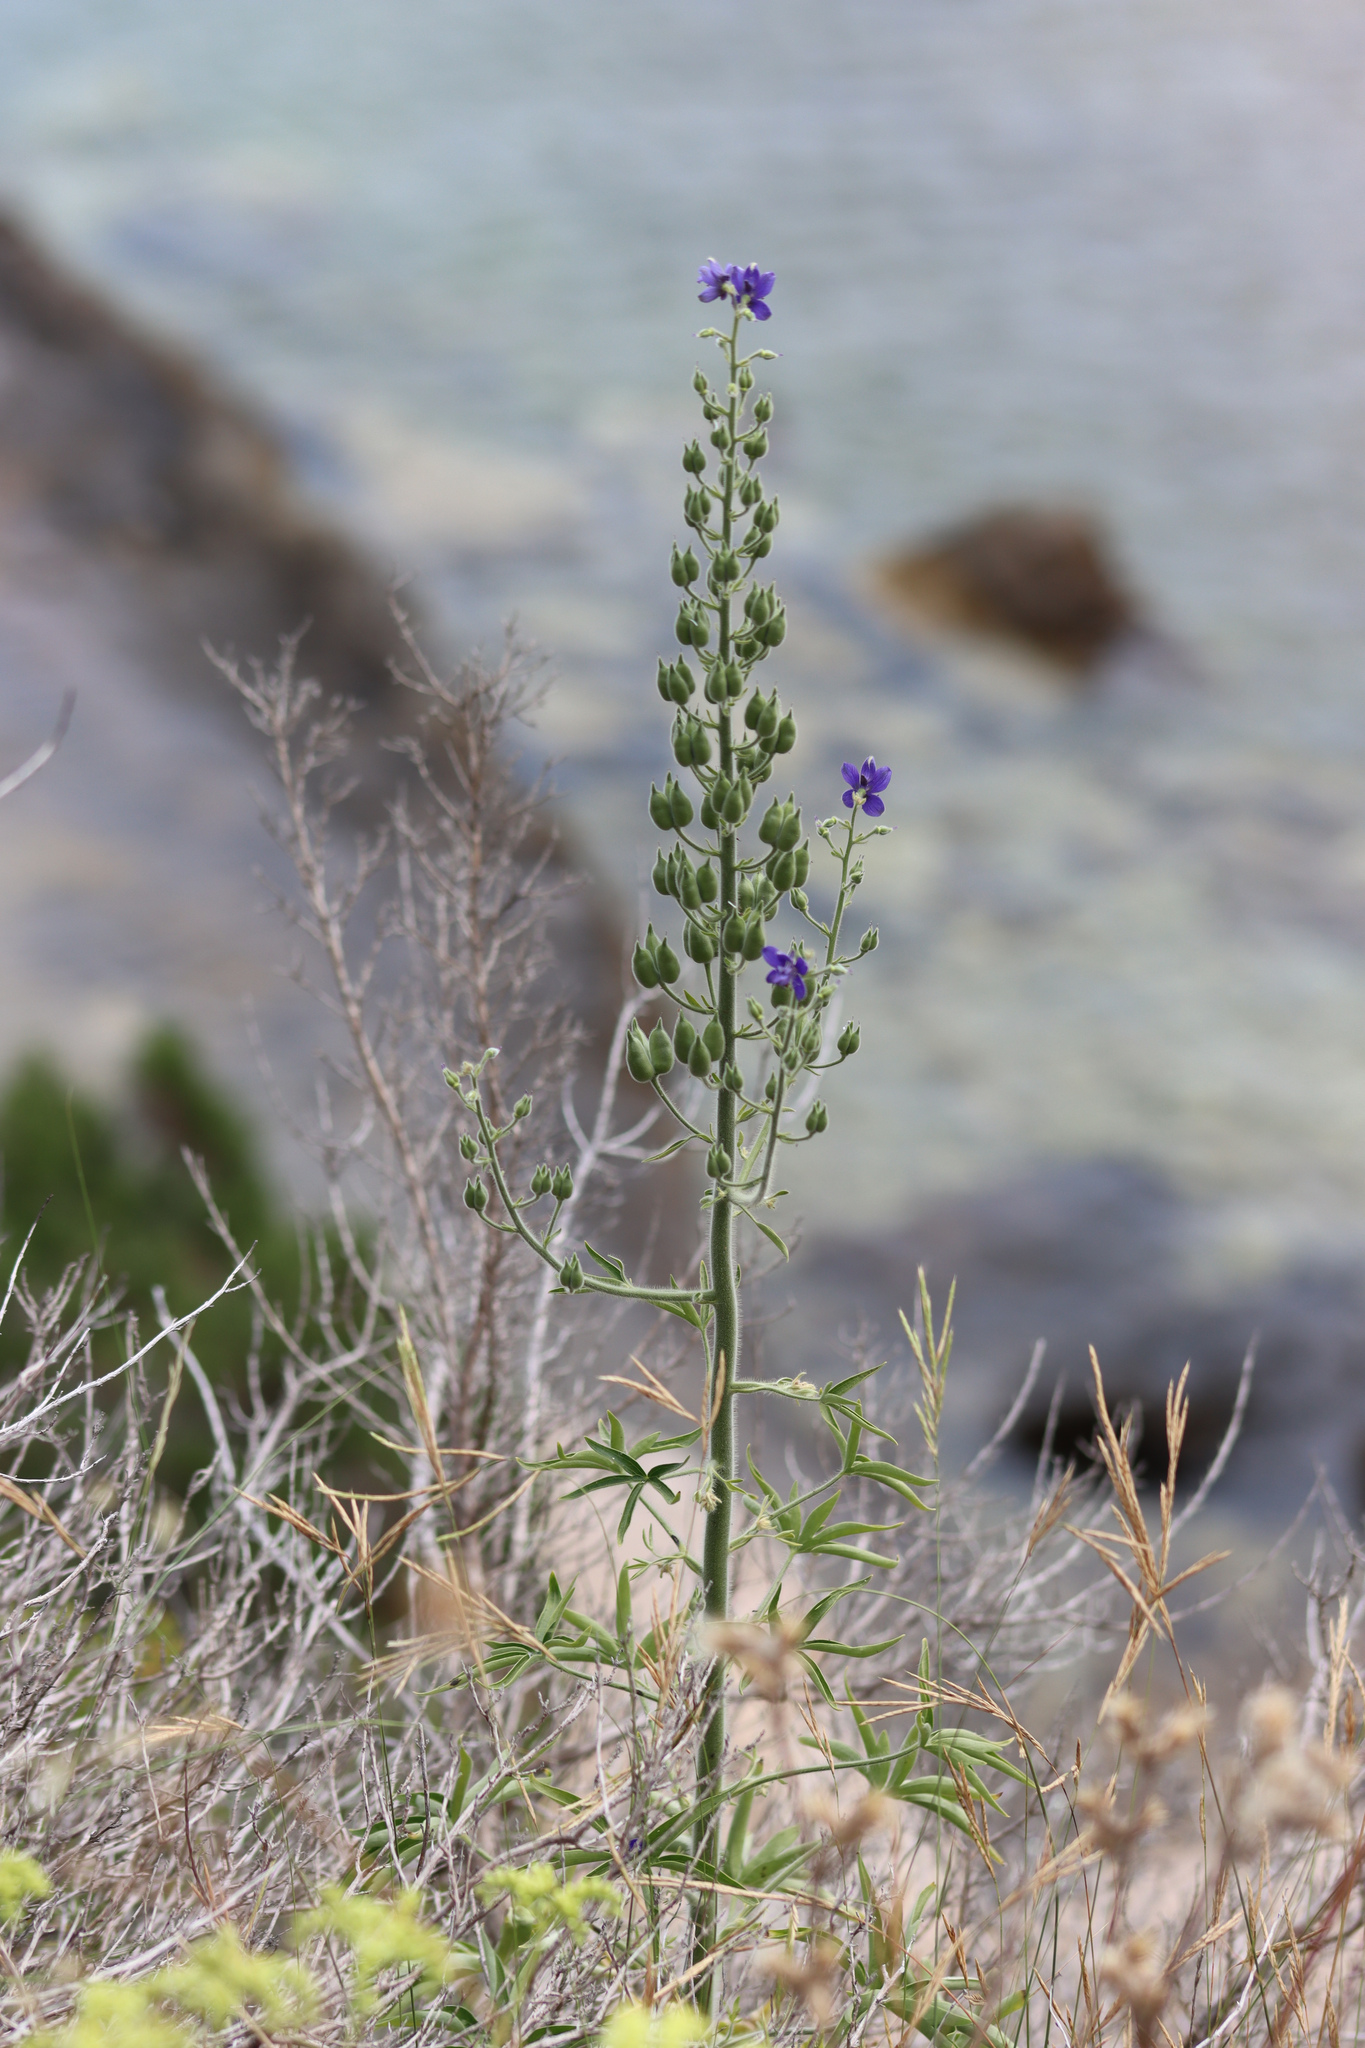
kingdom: Plantae
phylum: Tracheophyta
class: Magnoliopsida
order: Ranunculales
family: Ranunculaceae
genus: Staphisagria
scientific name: Staphisagria macrosperma
